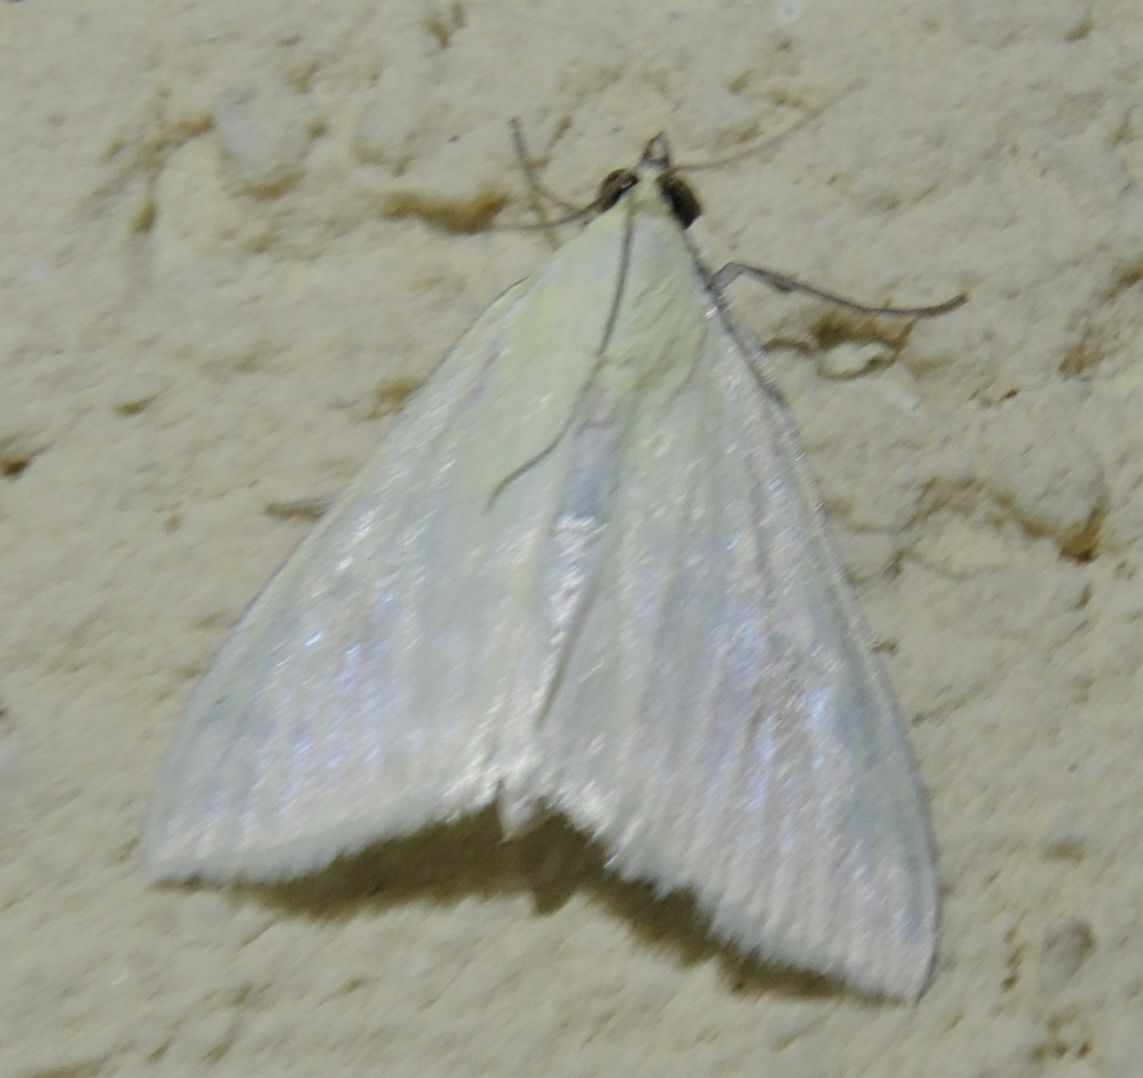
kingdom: Animalia
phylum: Arthropoda
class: Insecta
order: Lepidoptera
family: Crambidae
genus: Sitochroa
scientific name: Sitochroa palealis
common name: Greenish-yellow sitochroa moth
